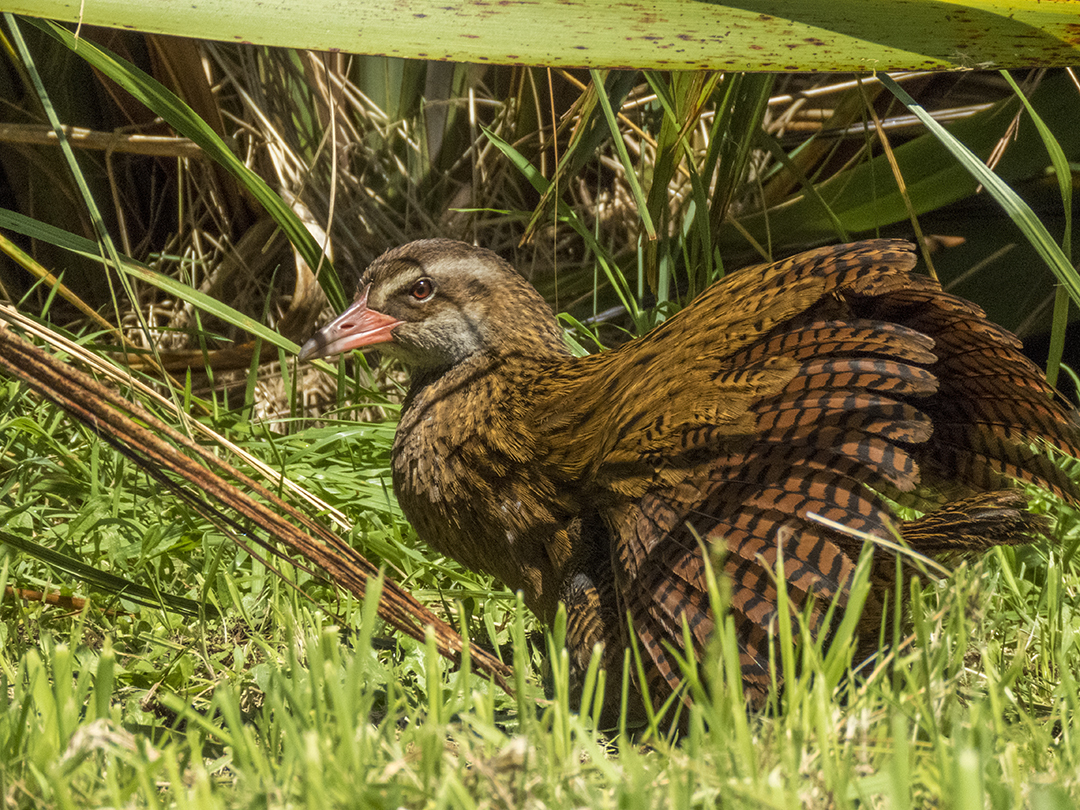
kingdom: Animalia
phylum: Chordata
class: Aves
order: Gruiformes
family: Rallidae
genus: Gallirallus
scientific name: Gallirallus australis
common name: Weka
